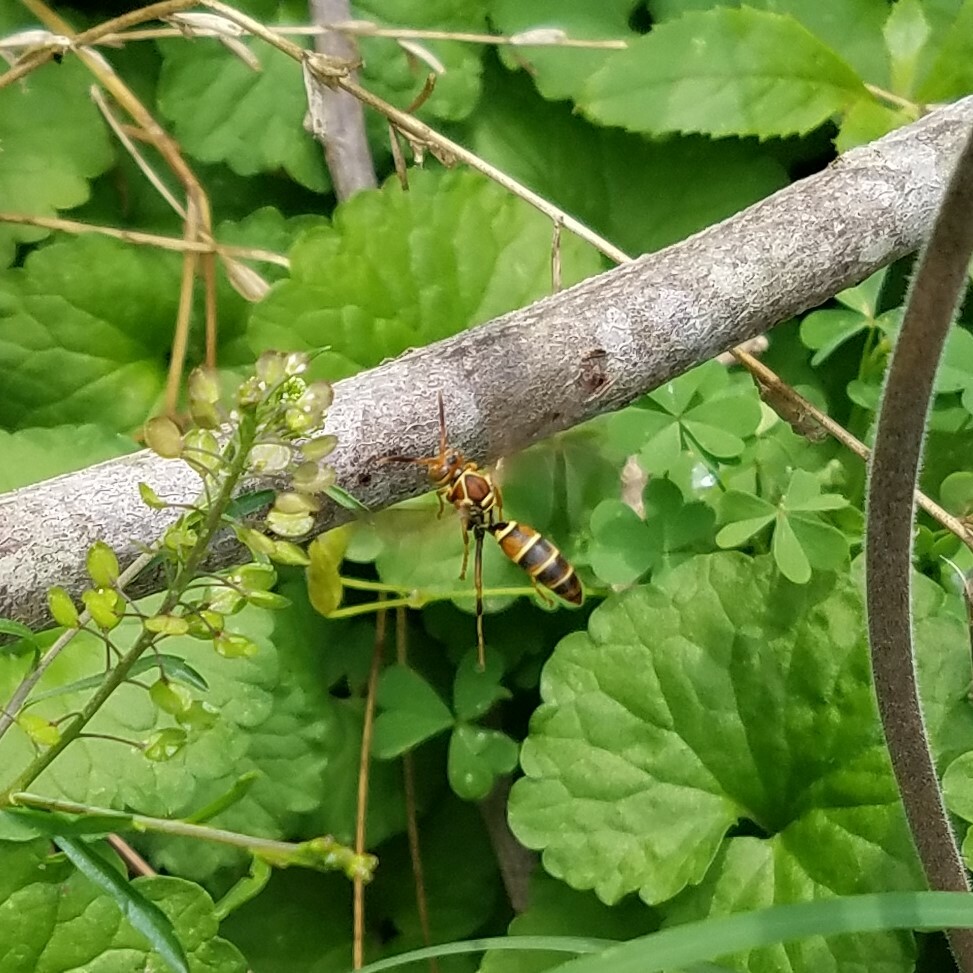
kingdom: Animalia
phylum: Arthropoda
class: Insecta
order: Hymenoptera
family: Eumenidae
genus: Polistes
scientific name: Polistes dorsalis
